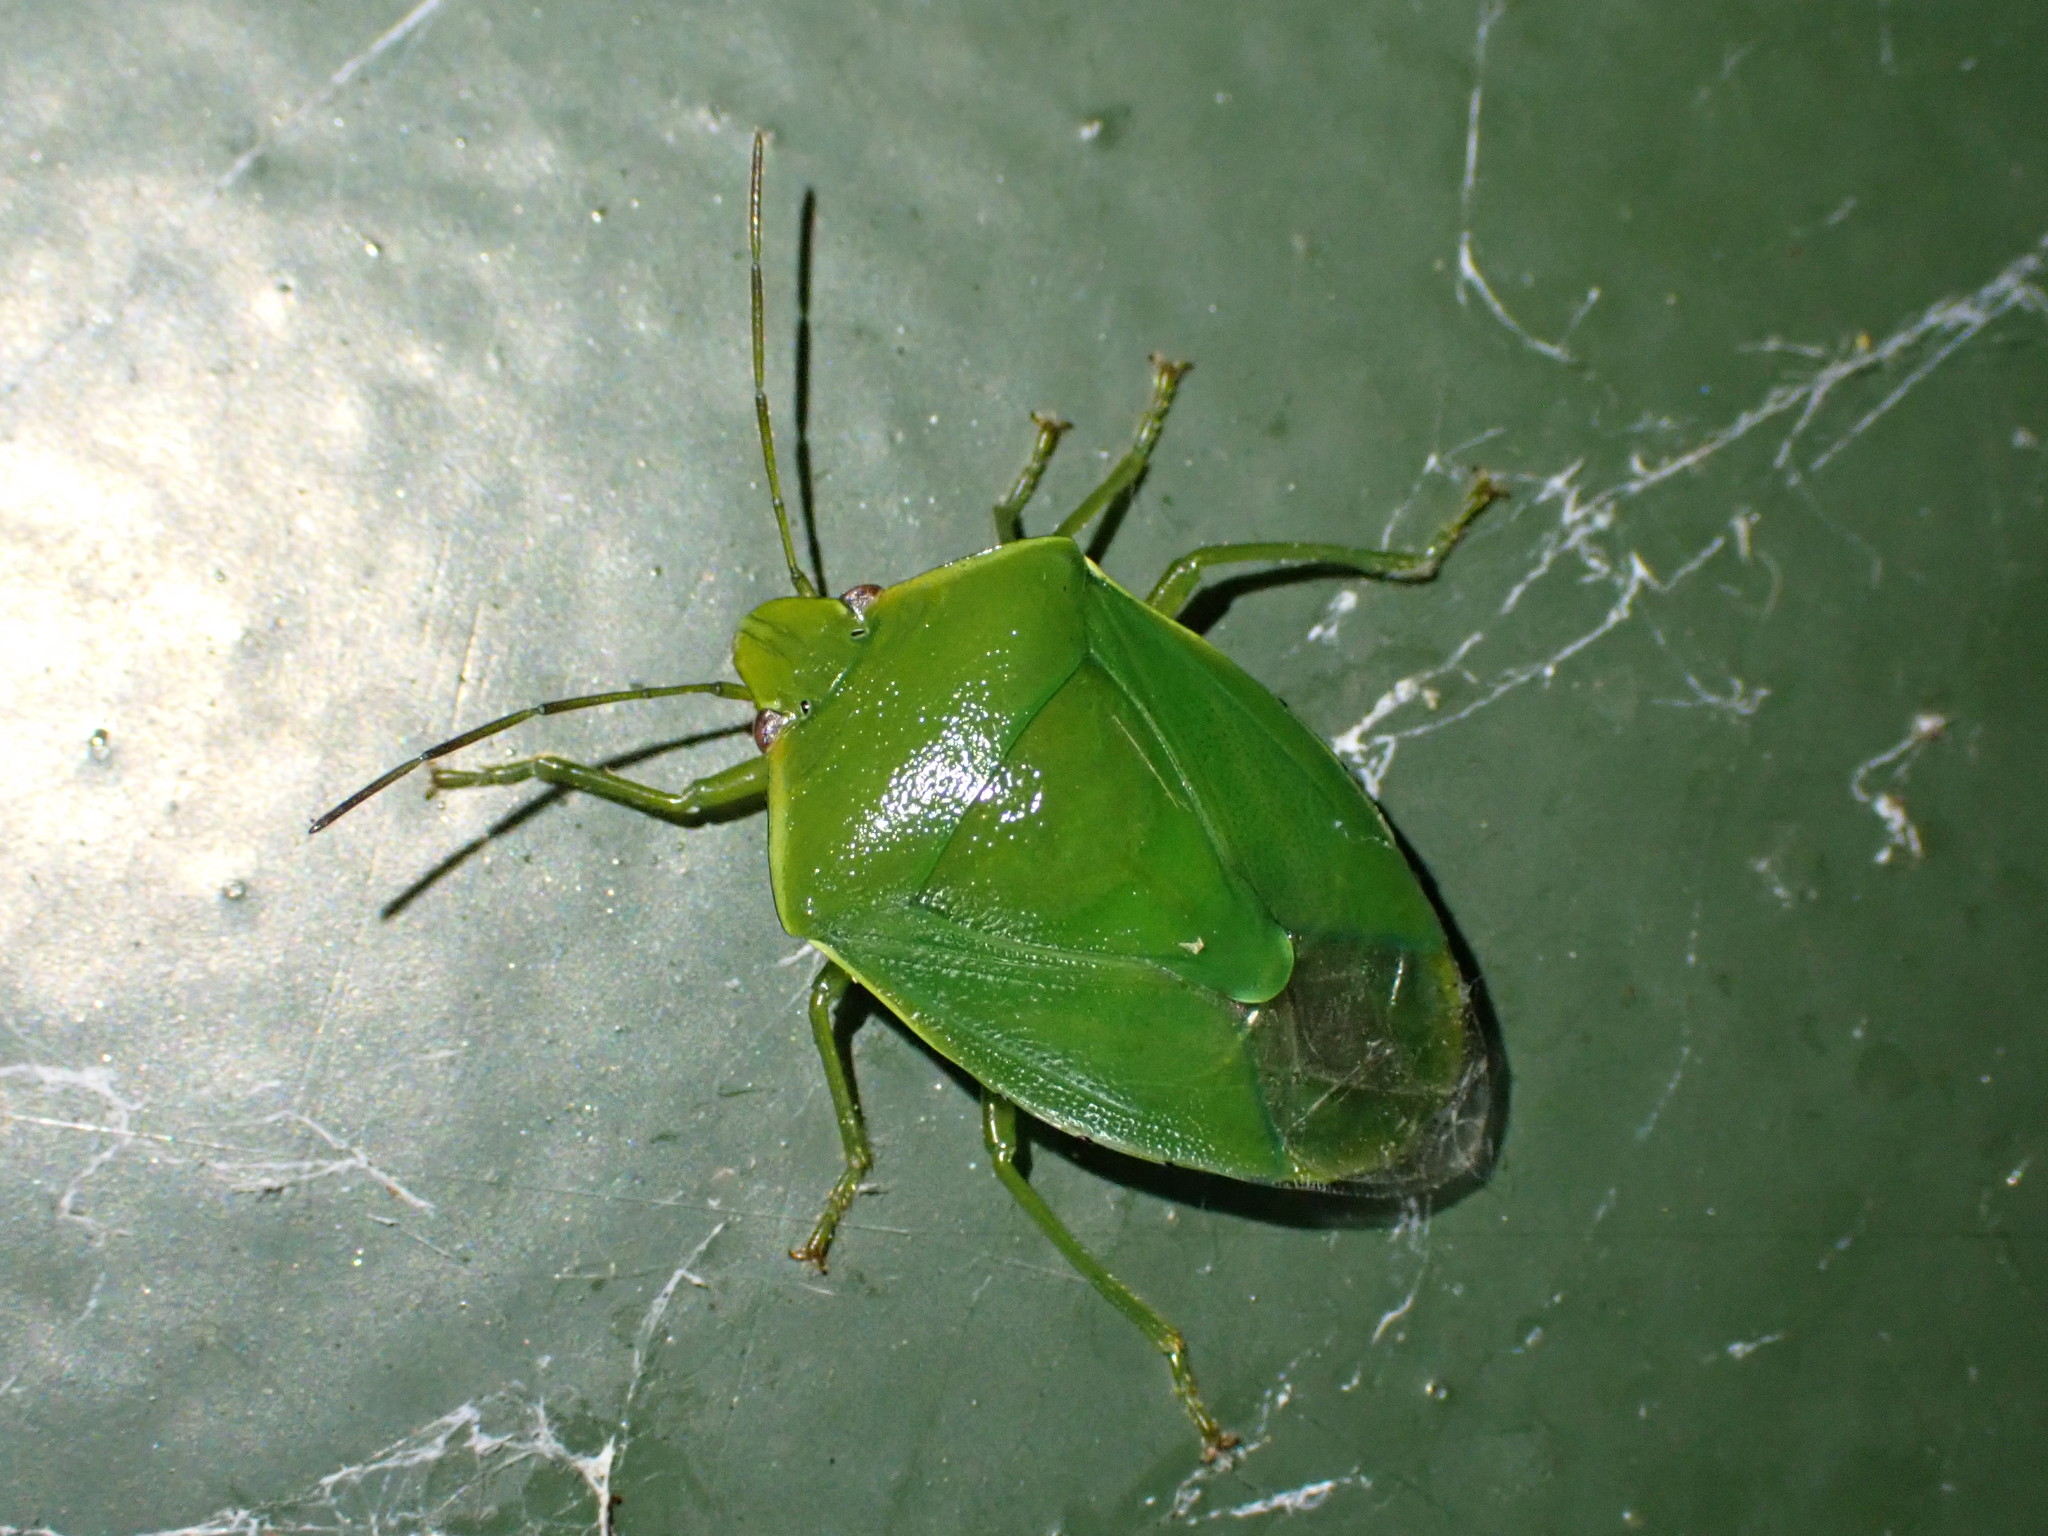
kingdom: Animalia
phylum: Arthropoda
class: Insecta
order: Hemiptera
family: Pentatomidae
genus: Glaucias
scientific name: Glaucias amyota
